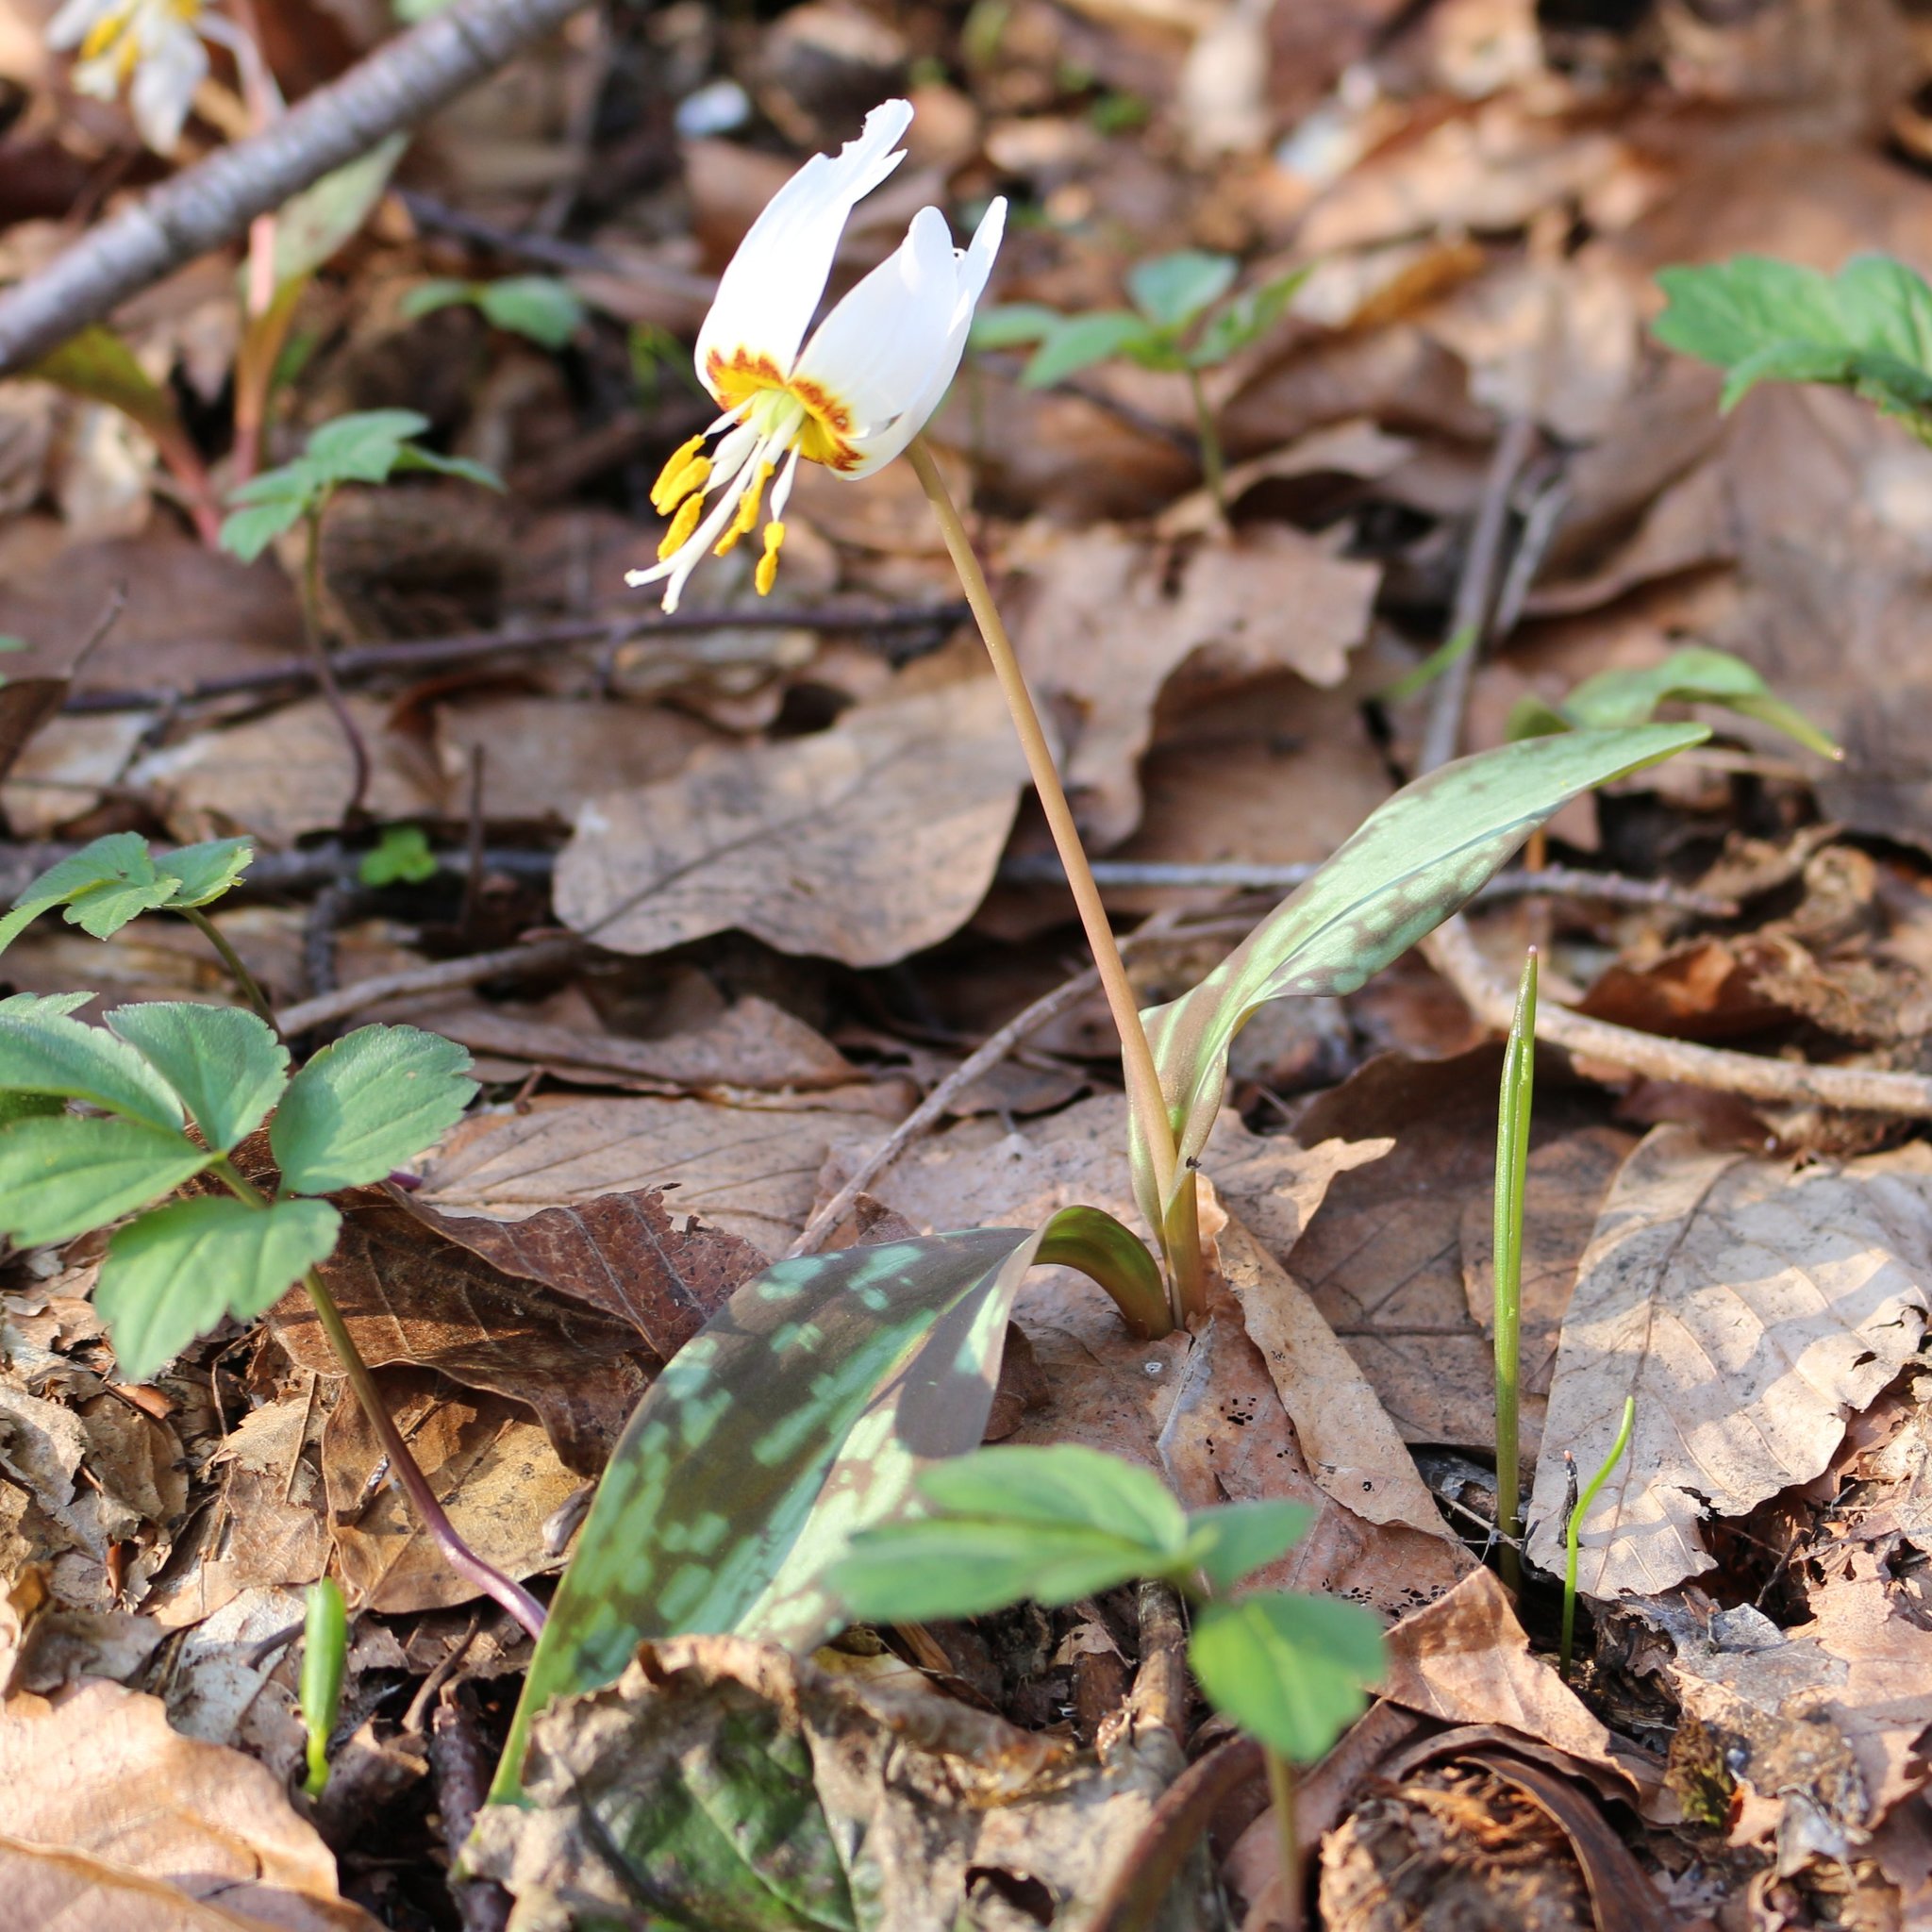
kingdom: Plantae
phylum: Tracheophyta
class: Liliopsida
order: Liliales
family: Liliaceae
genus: Erythronium
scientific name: Erythronium caucasicum
